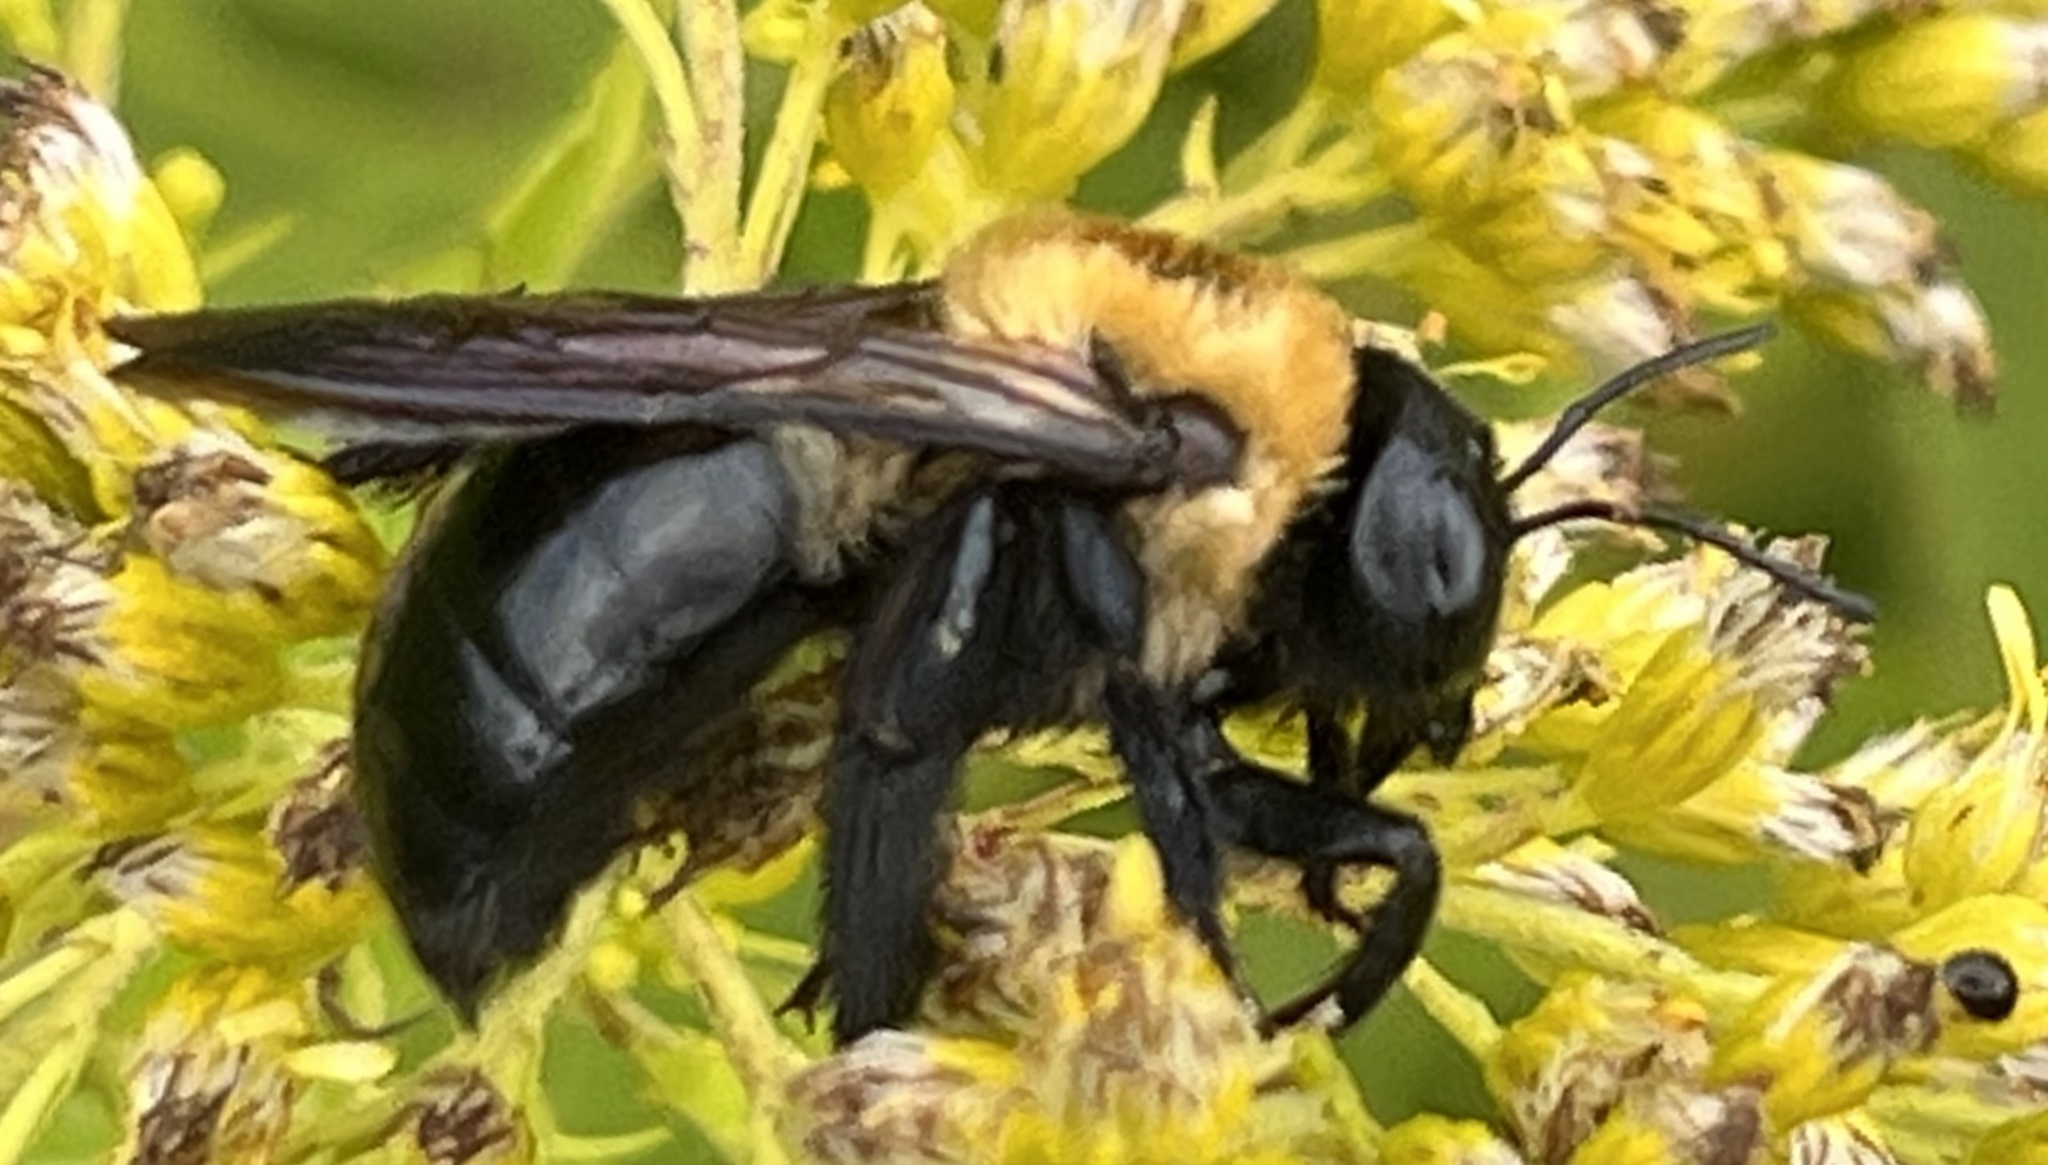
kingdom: Animalia
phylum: Arthropoda
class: Insecta
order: Hymenoptera
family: Apidae
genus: Xylocopa
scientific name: Xylocopa virginica
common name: Carpenter bee
